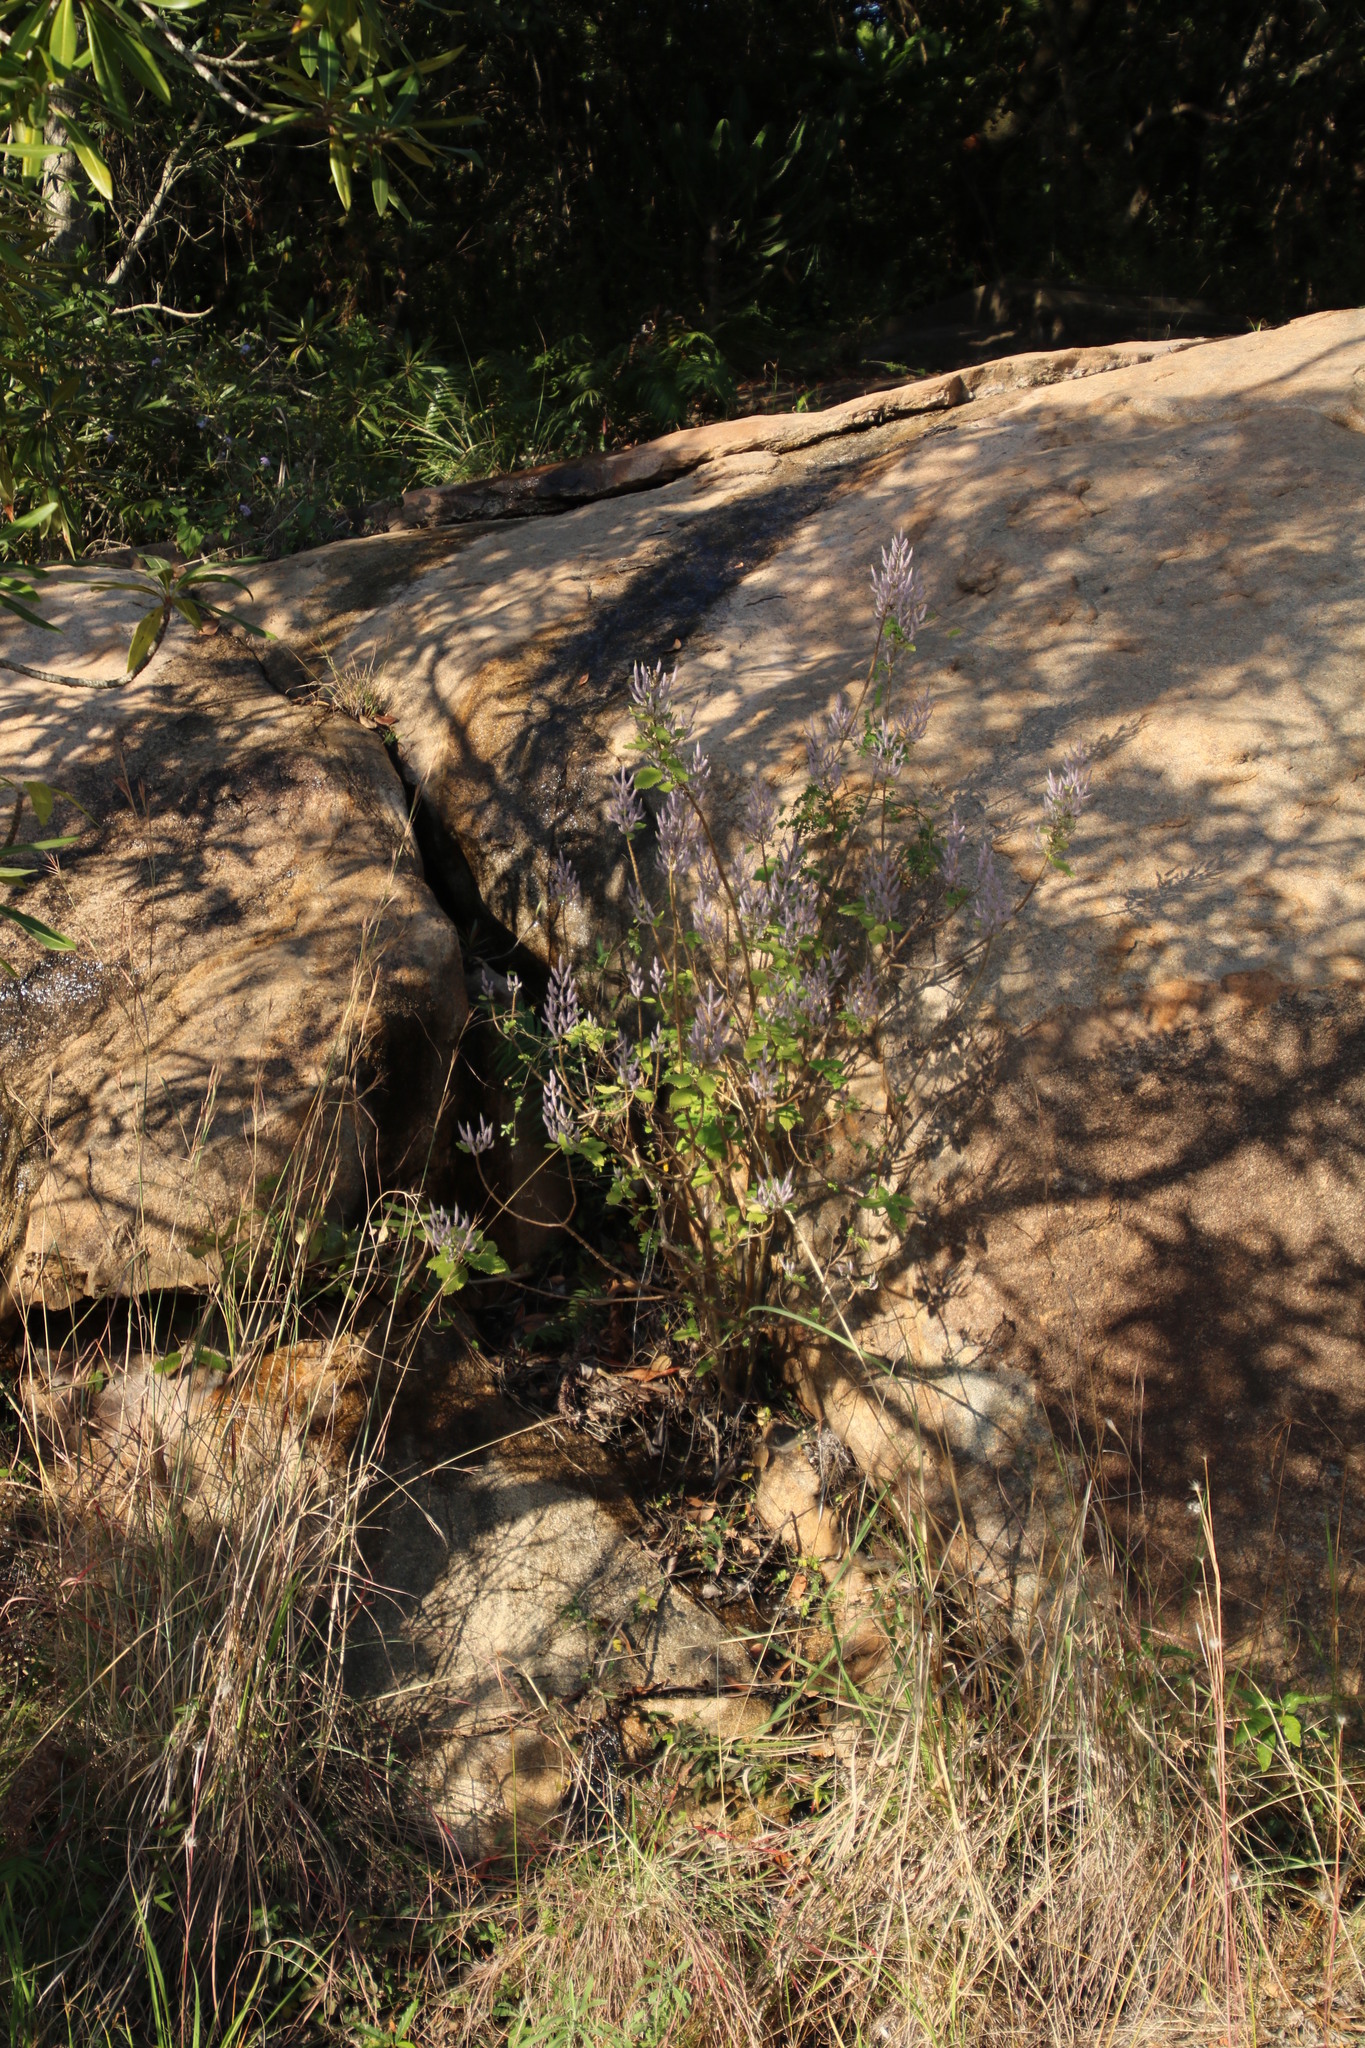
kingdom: Plantae
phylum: Tracheophyta
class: Magnoliopsida
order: Lamiales
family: Lamiaceae
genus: Tetradenia
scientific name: Tetradenia riparia
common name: Gingerbush
